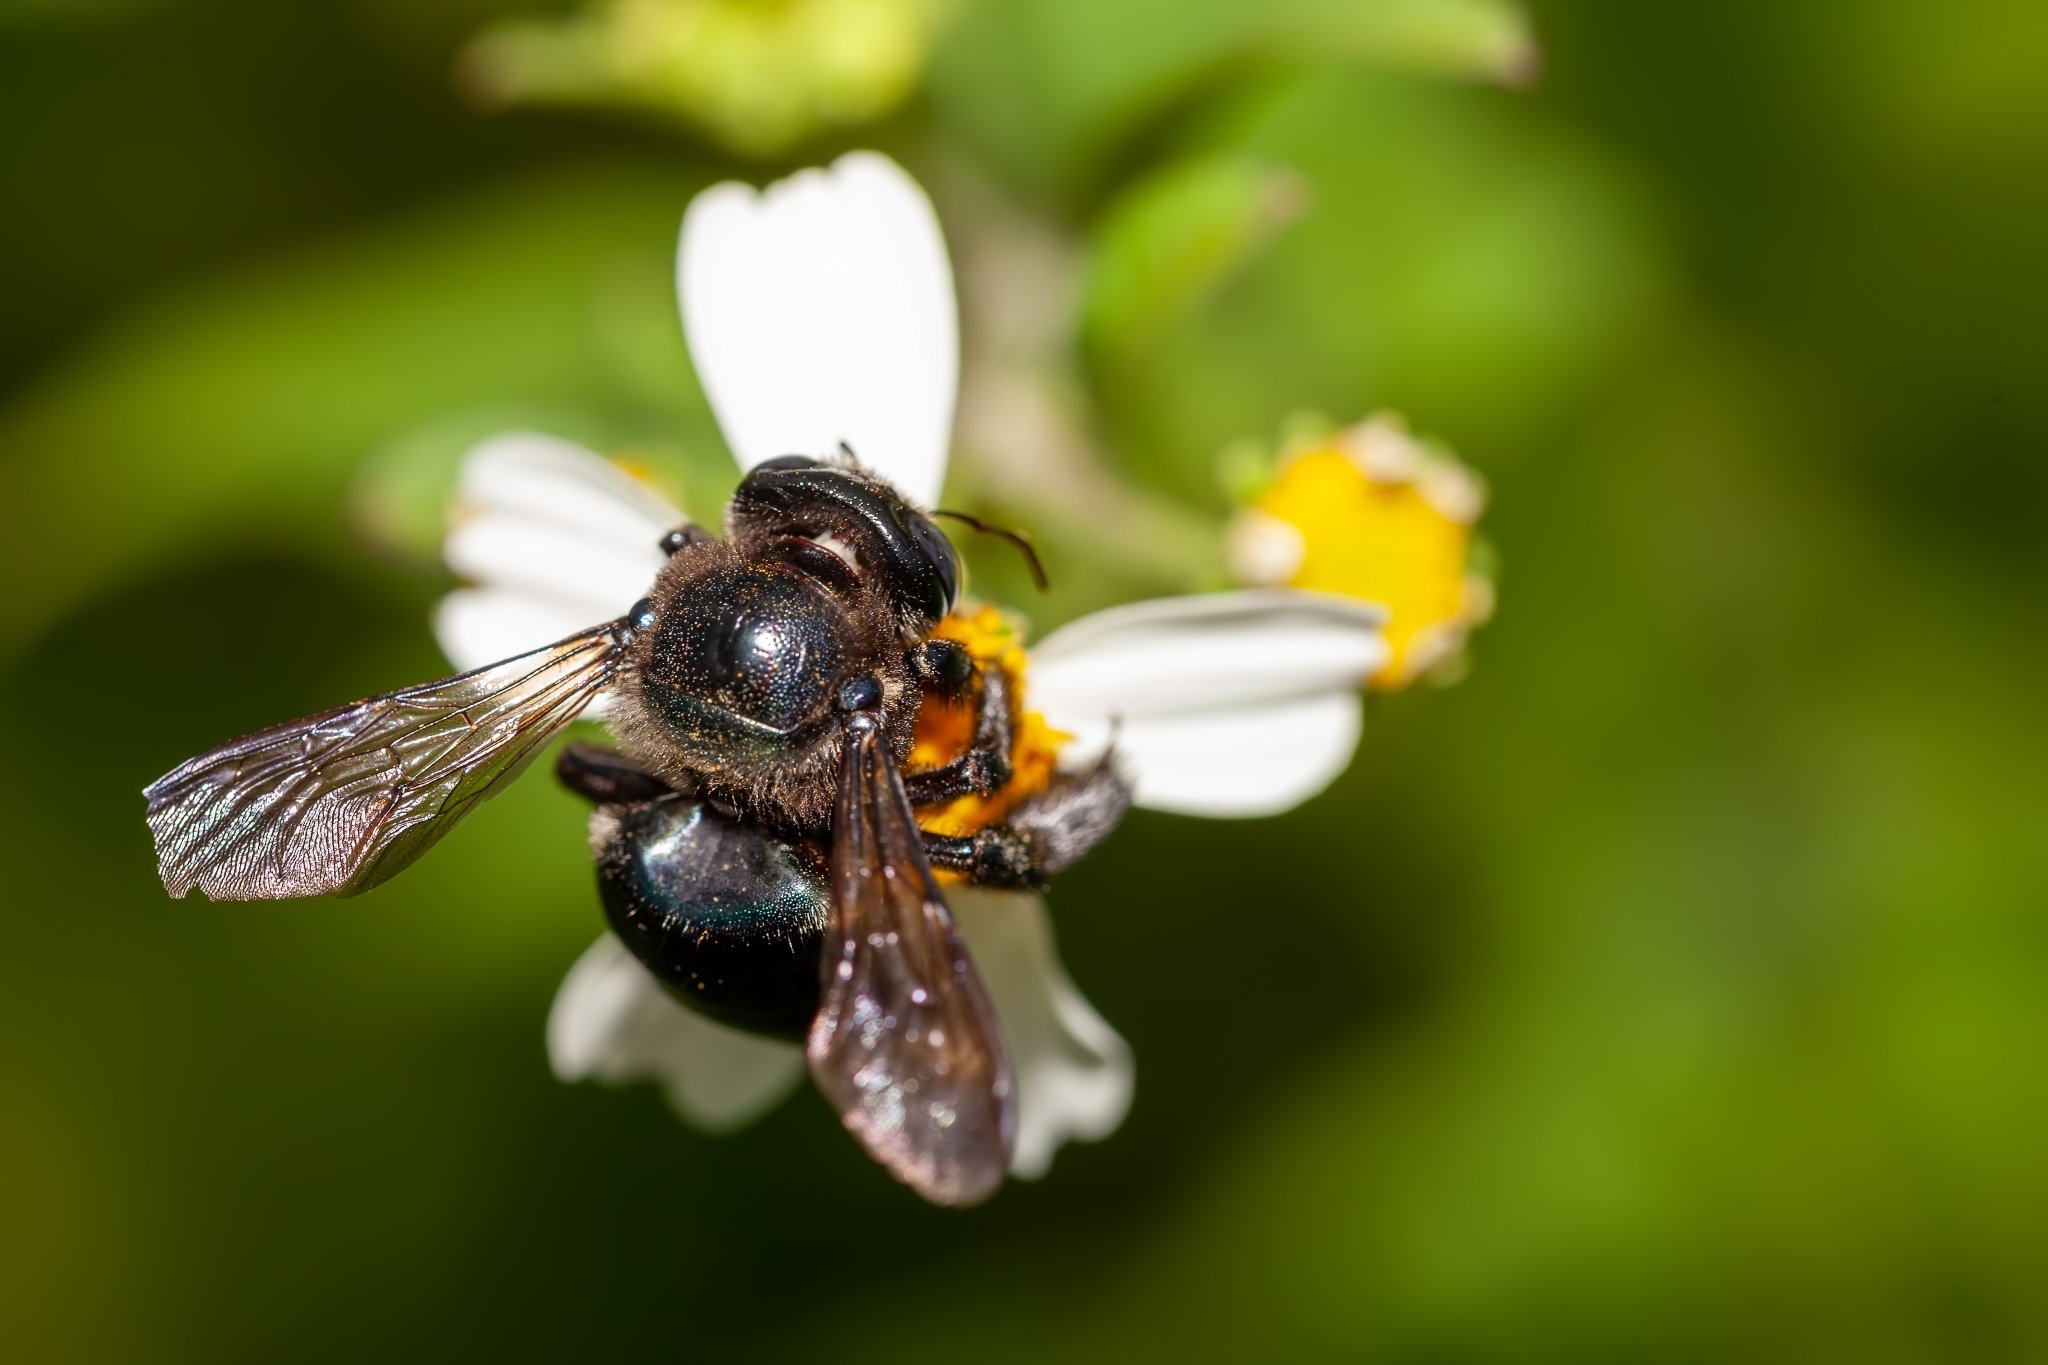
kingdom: Animalia
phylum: Arthropoda
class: Insecta
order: Hymenoptera
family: Apidae
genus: Xylocopa
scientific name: Xylocopa micans
